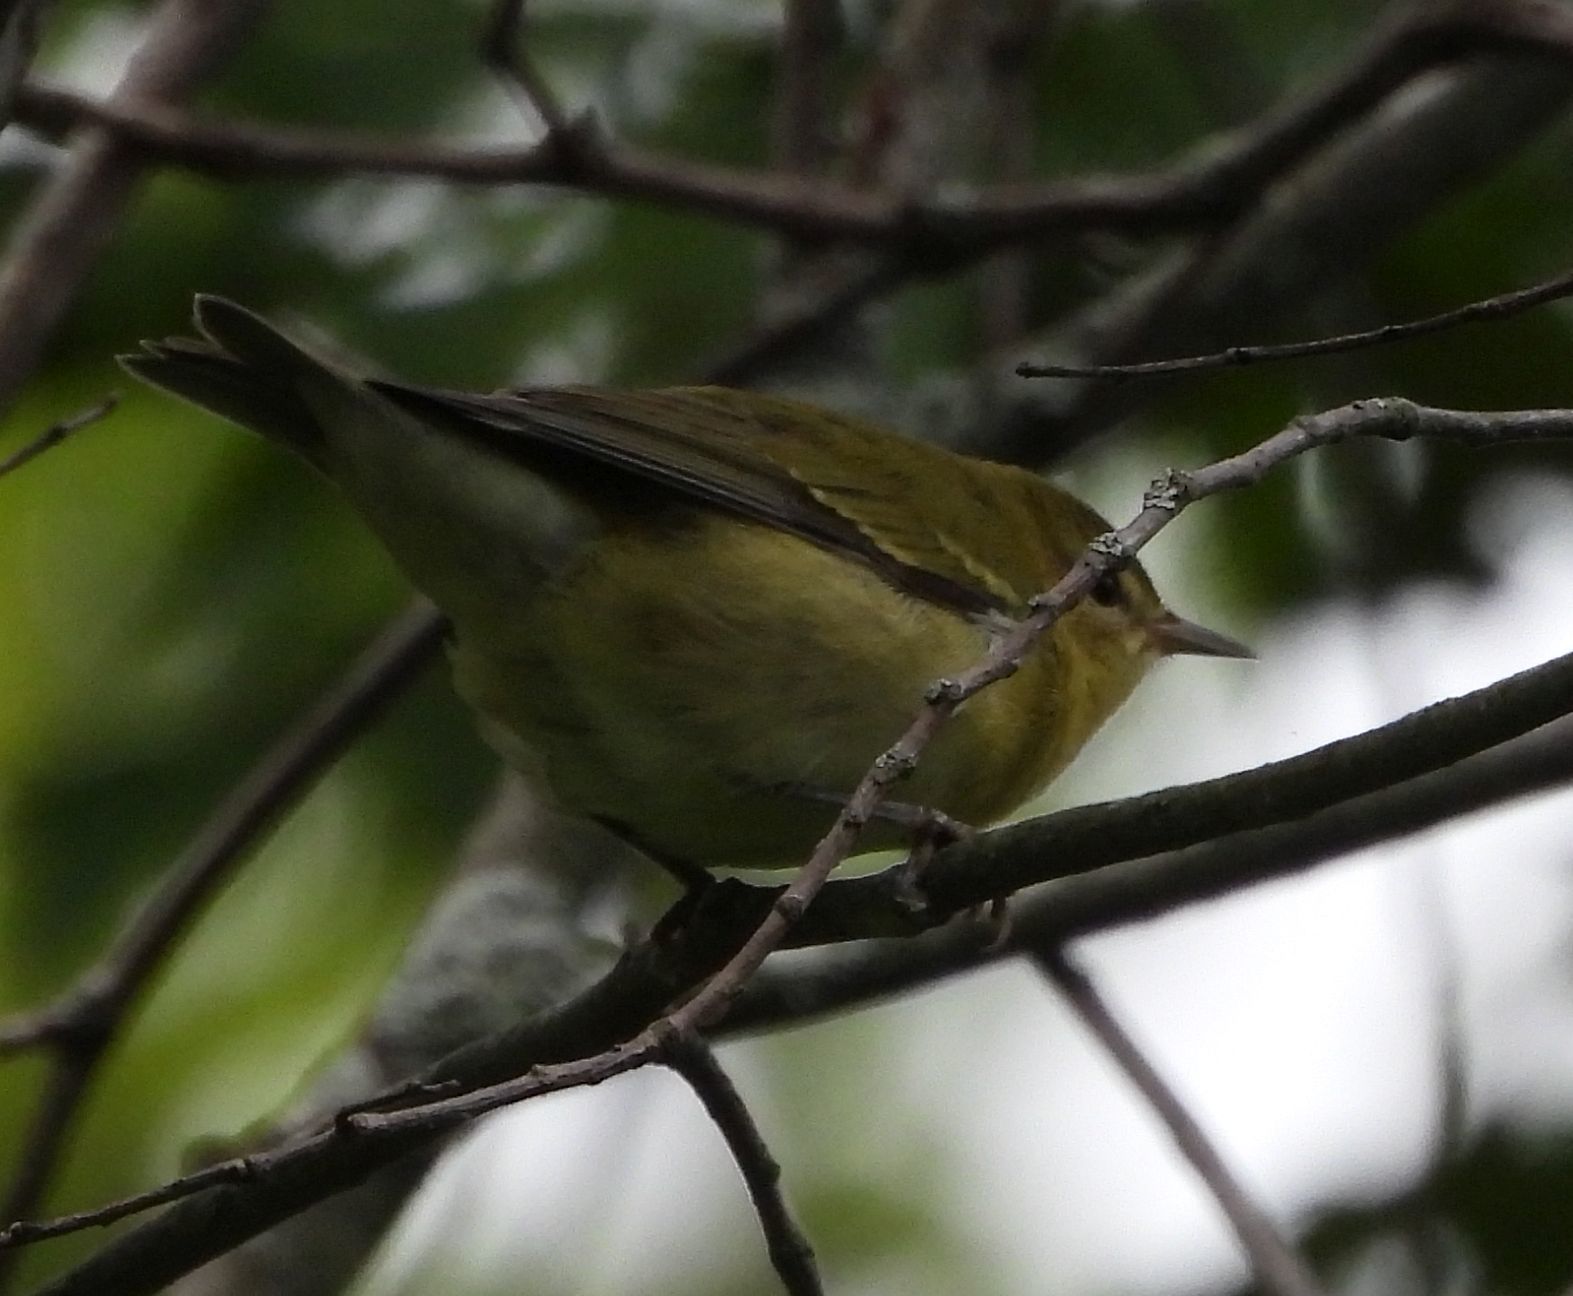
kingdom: Animalia
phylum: Chordata
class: Aves
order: Passeriformes
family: Parulidae
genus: Leiothlypis
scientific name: Leiothlypis peregrina
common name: Tennessee warbler
